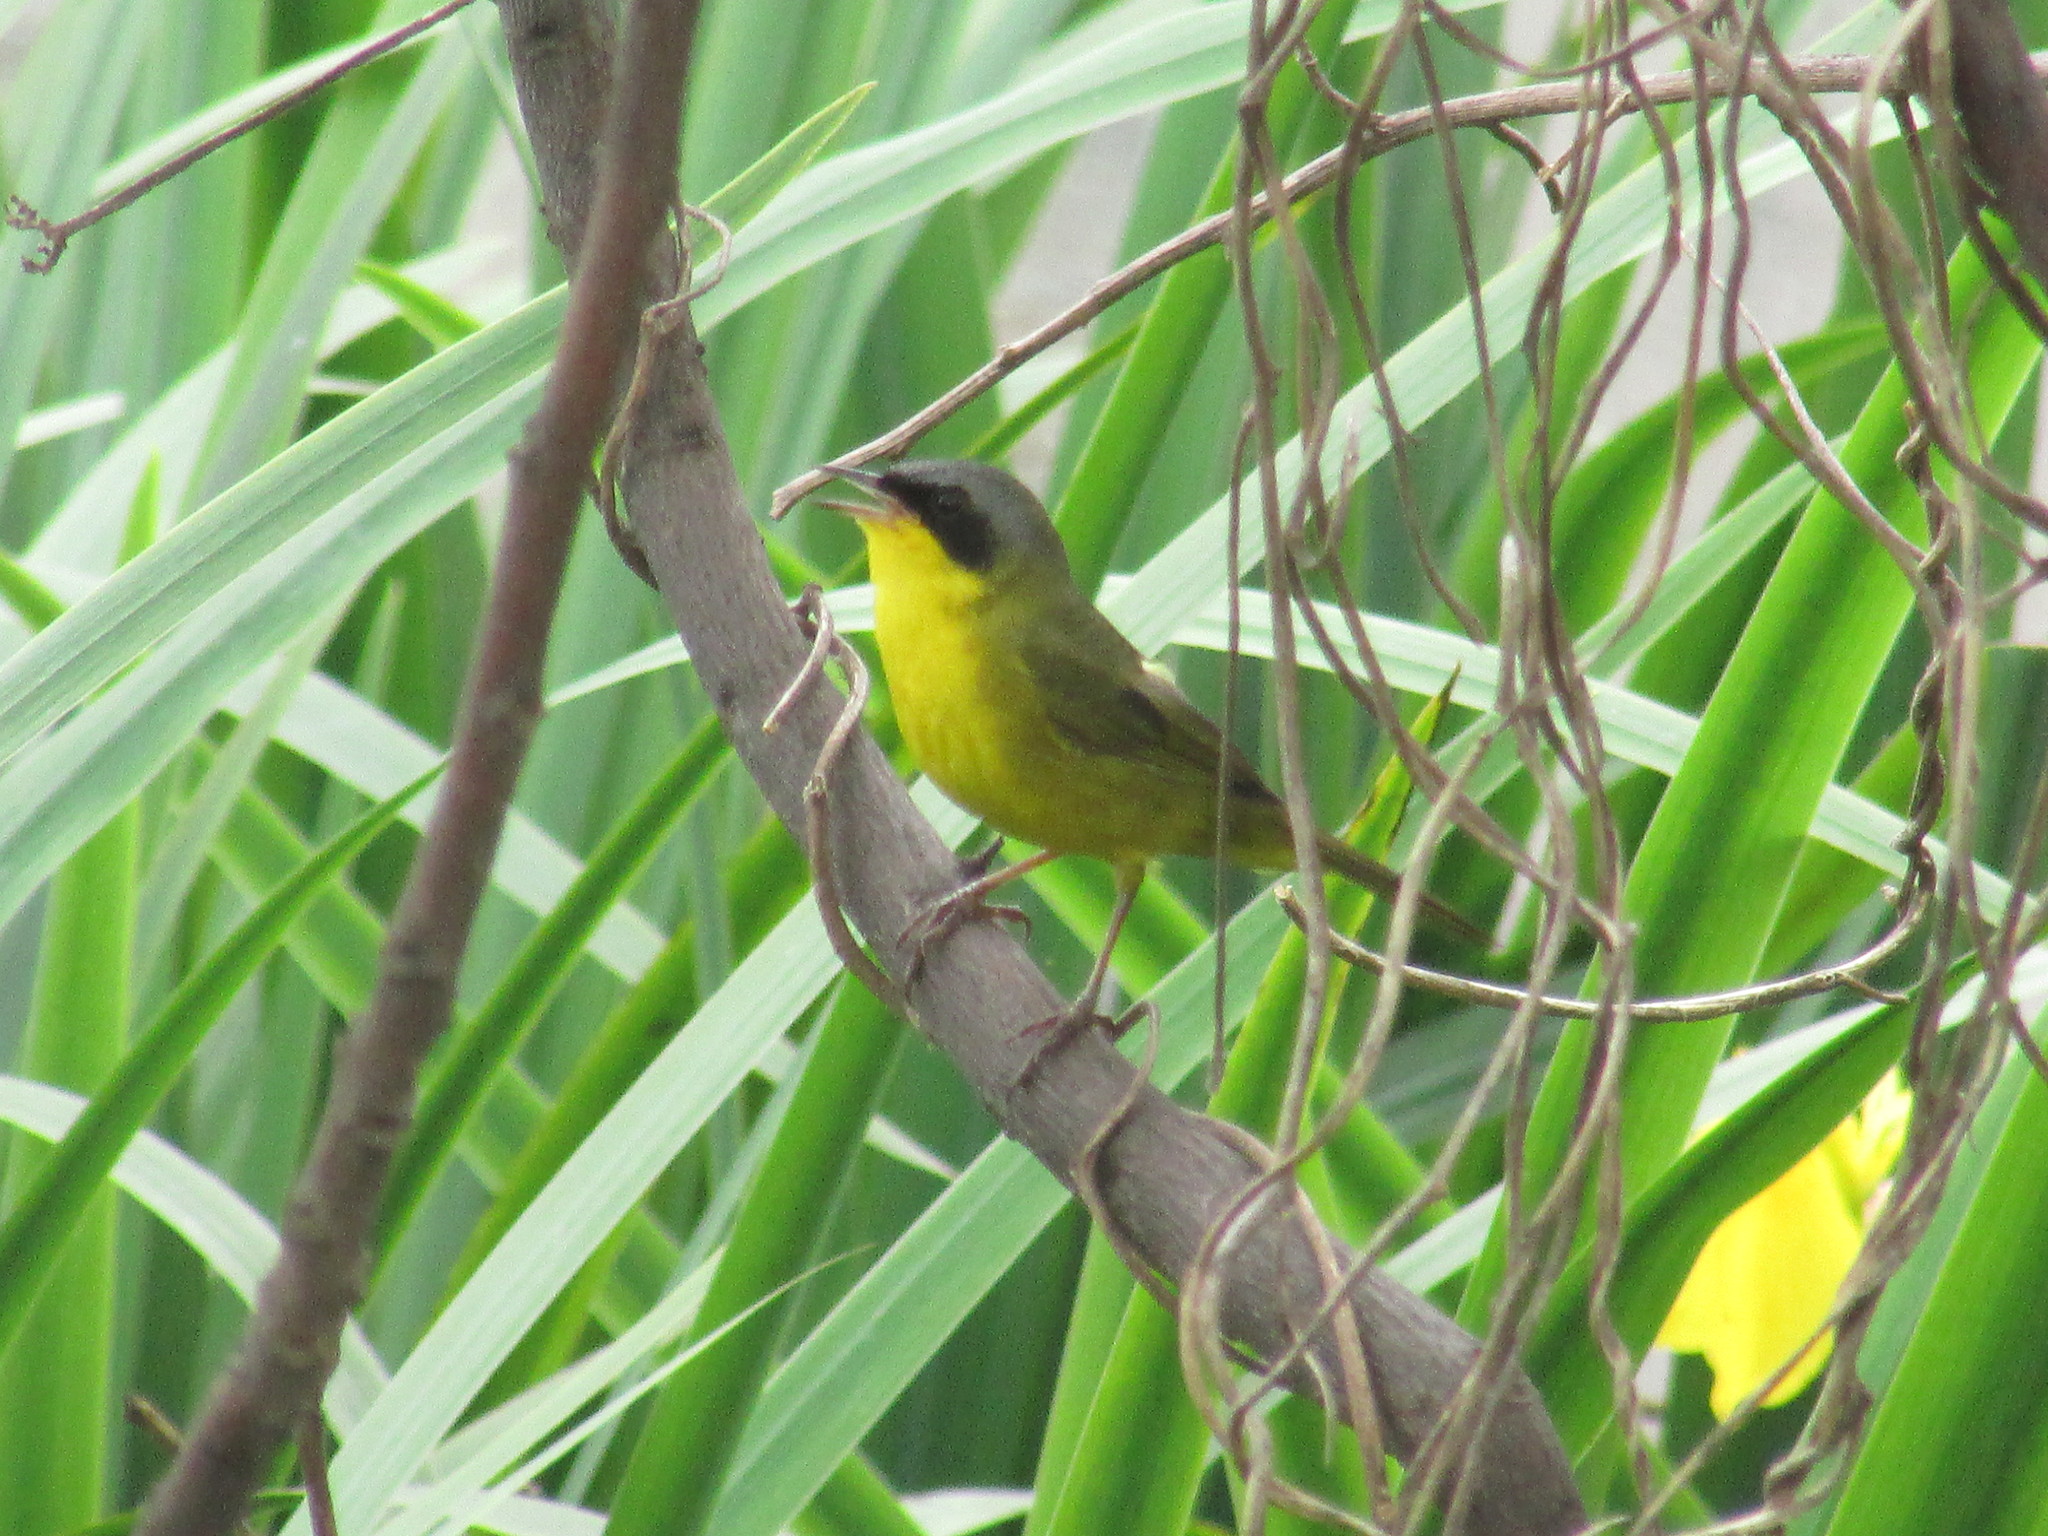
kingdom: Animalia
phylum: Chordata
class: Aves
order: Passeriformes
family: Parulidae
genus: Geothlypis
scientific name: Geothlypis velata
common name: Southern yellowthroat
